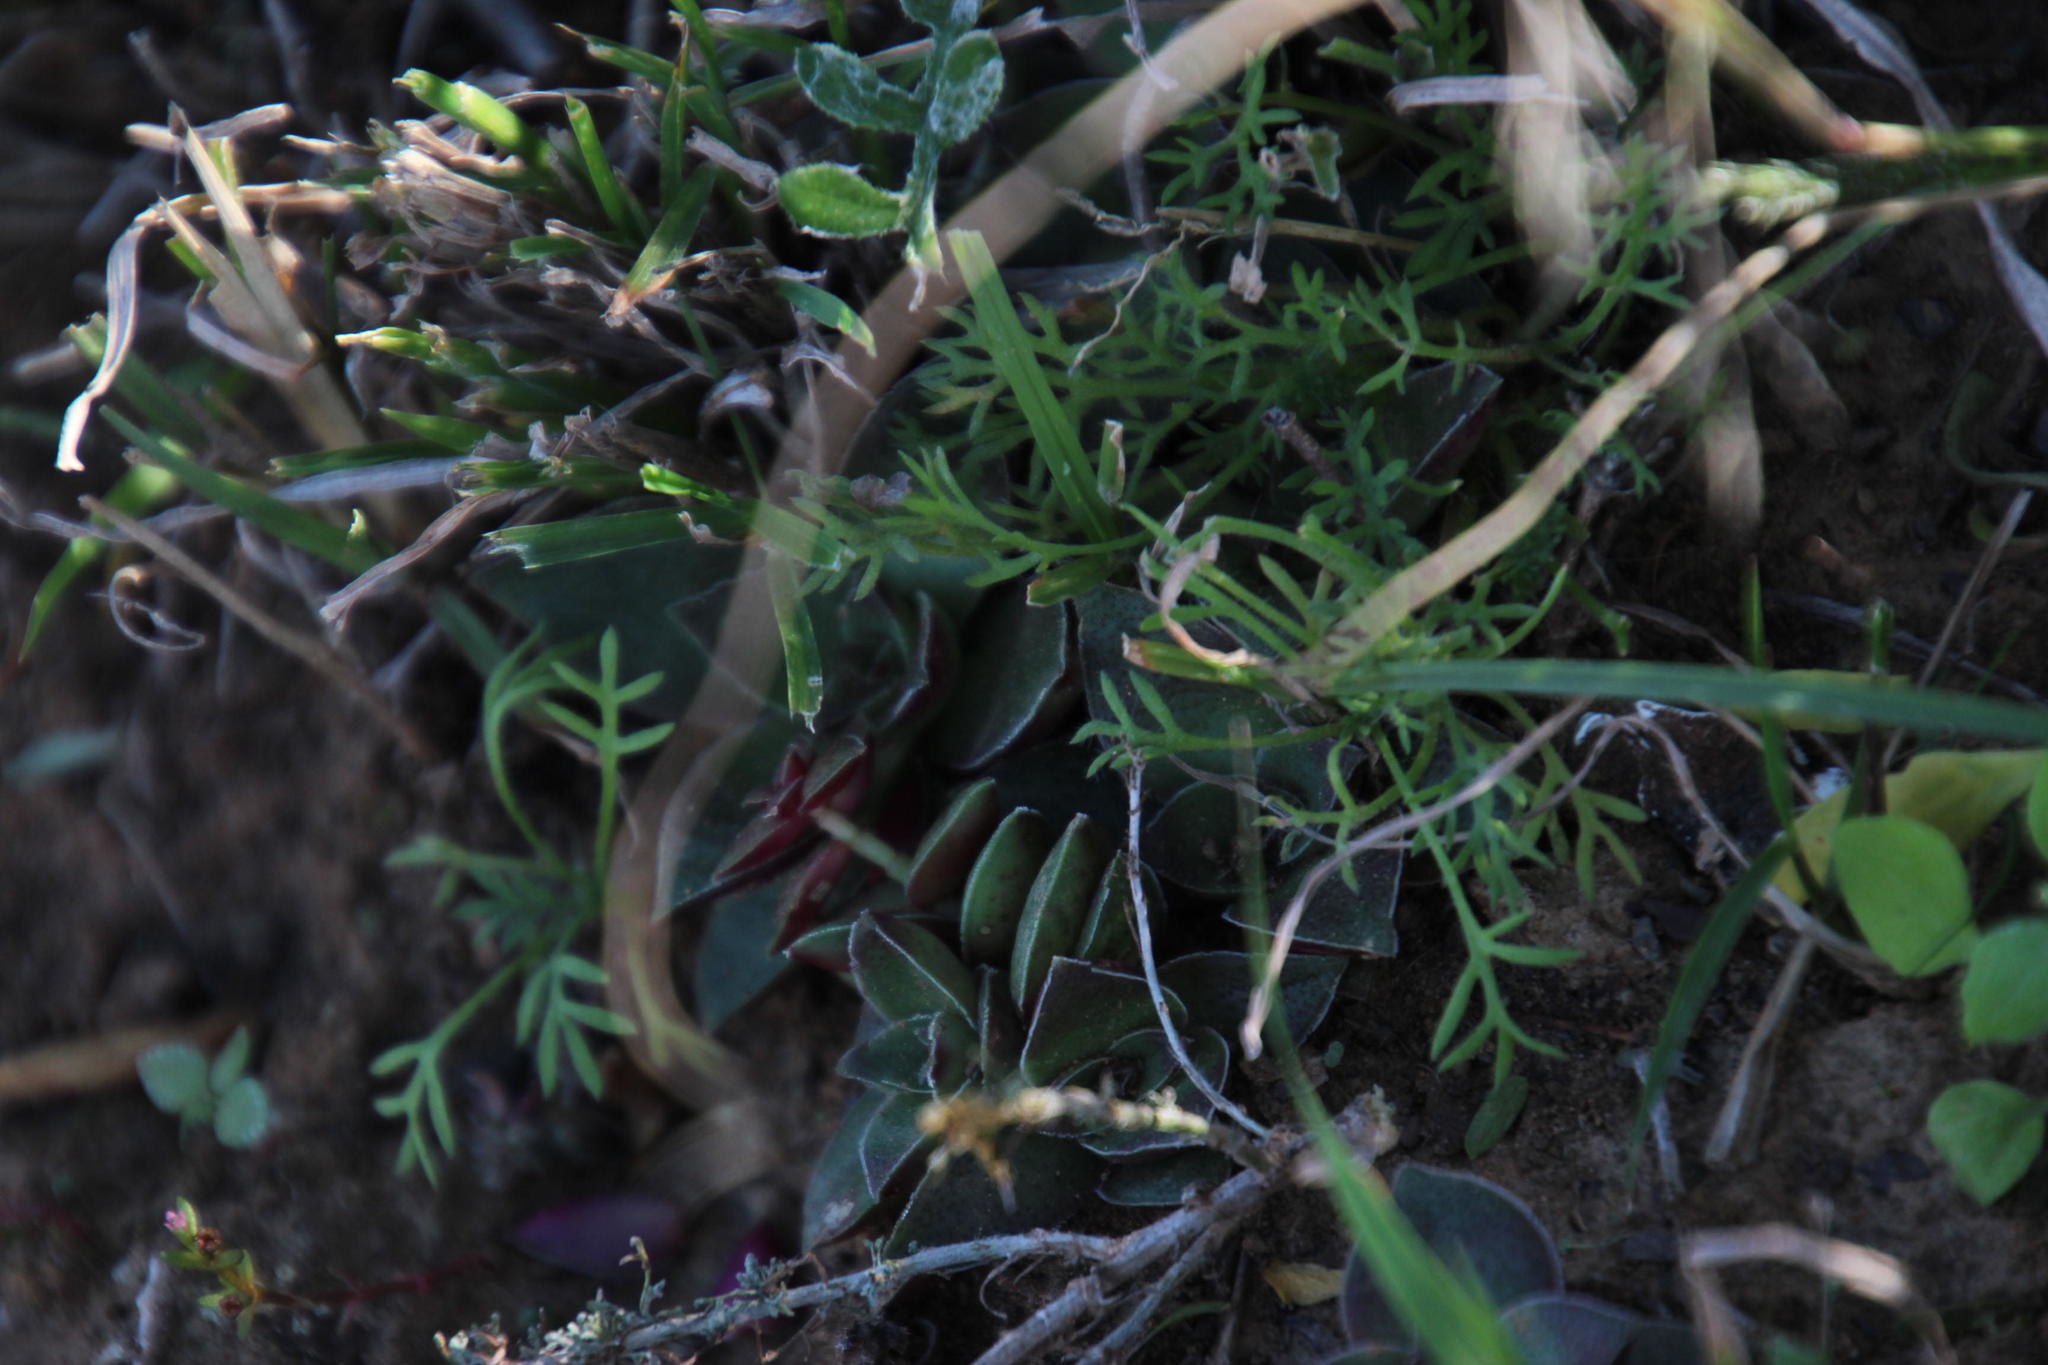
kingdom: Plantae
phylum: Tracheophyta
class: Magnoliopsida
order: Saxifragales
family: Crassulaceae
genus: Crassula
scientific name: Crassula capitella
